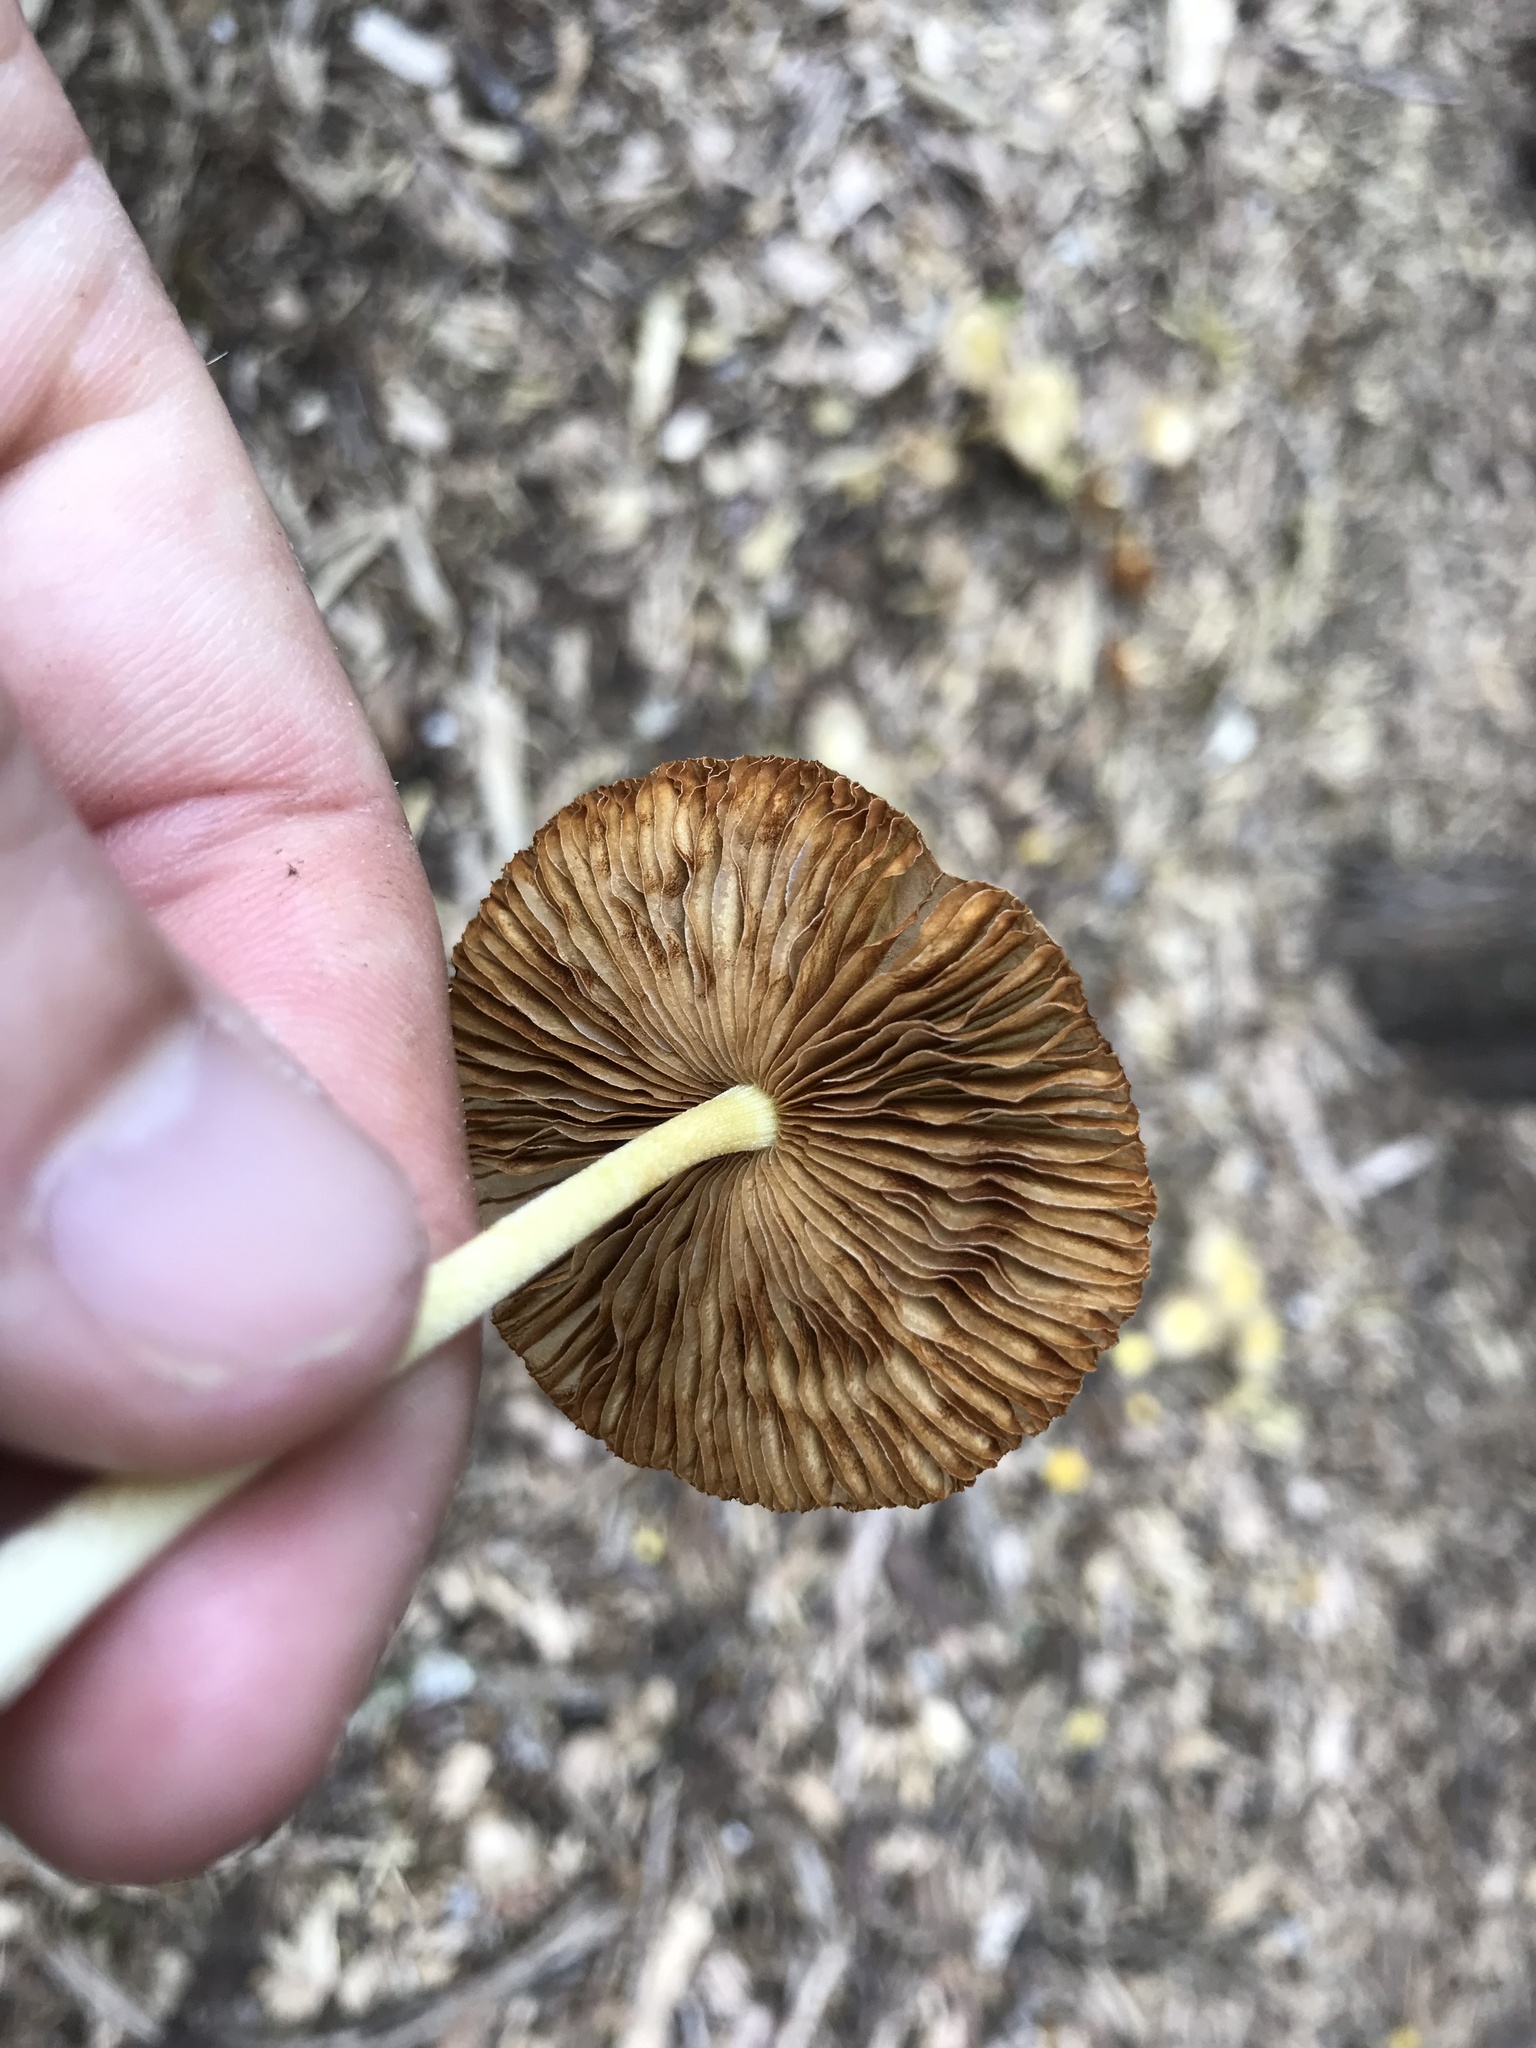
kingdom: Fungi
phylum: Basidiomycota
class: Agaricomycetes
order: Agaricales
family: Bolbitiaceae
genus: Bolbitius
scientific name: Bolbitius titubans
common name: Yellow fieldcap
